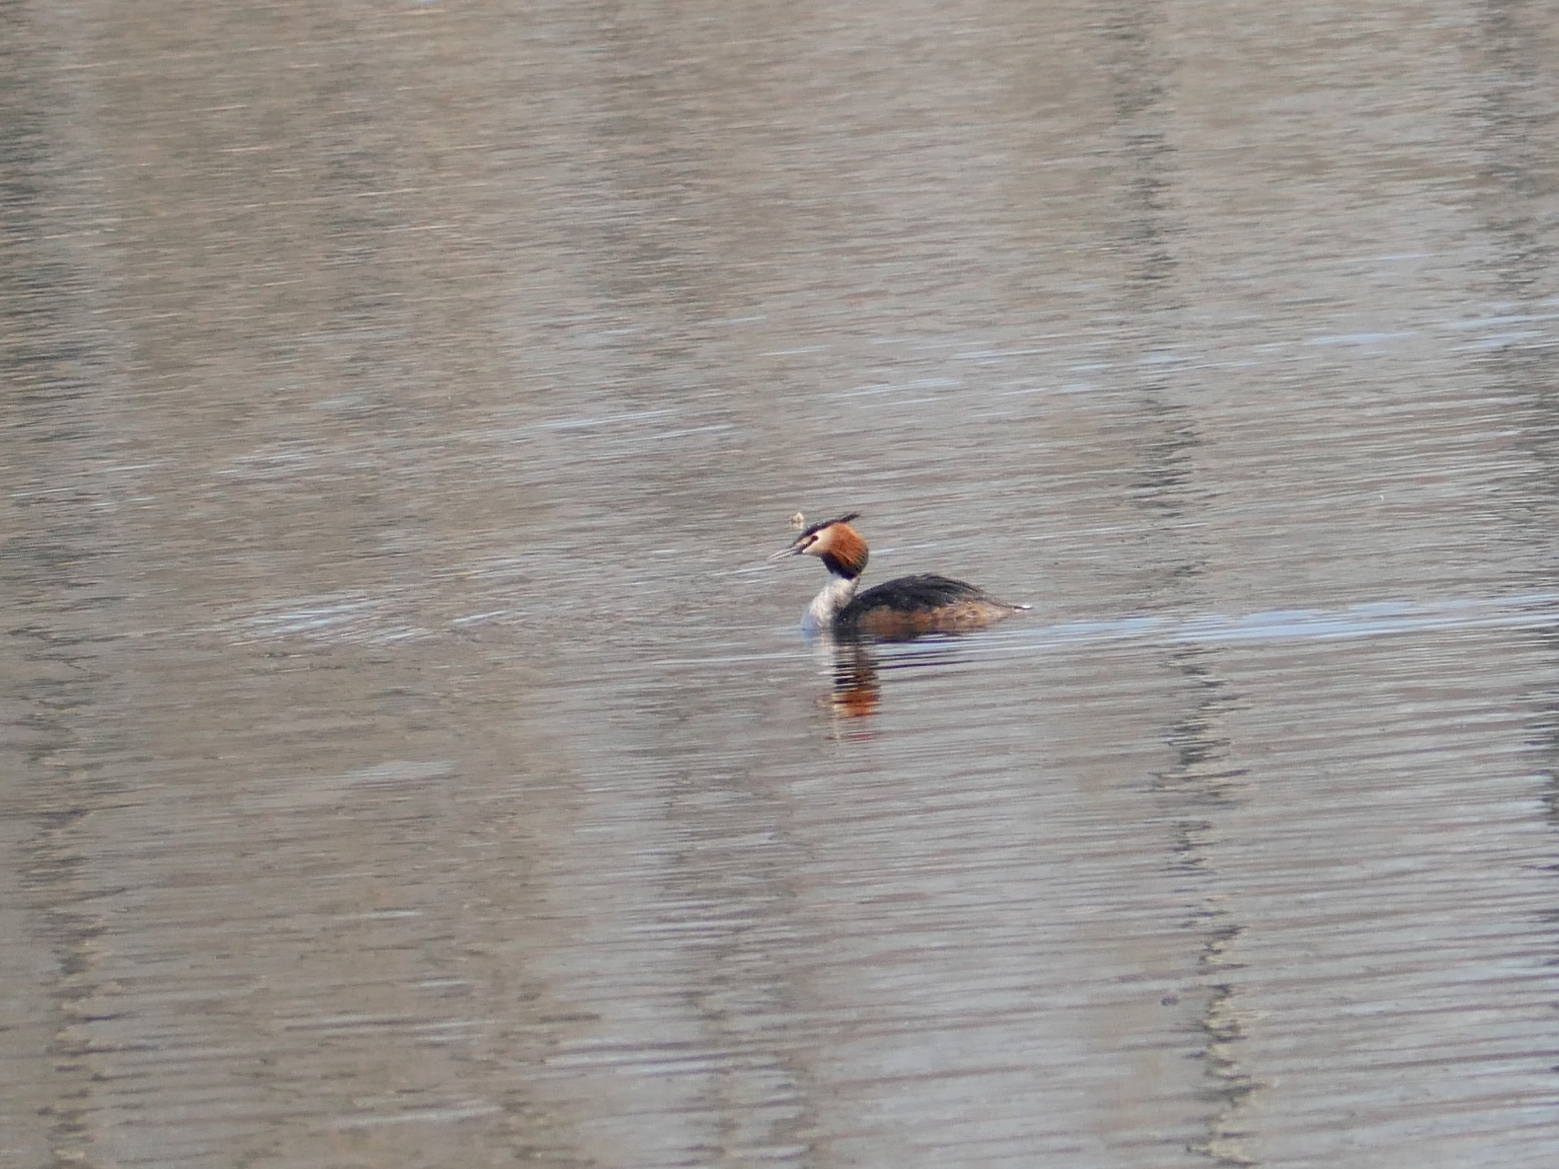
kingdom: Animalia
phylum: Chordata
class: Aves
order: Podicipediformes
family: Podicipedidae
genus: Podiceps
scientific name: Podiceps cristatus
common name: Great crested grebe
